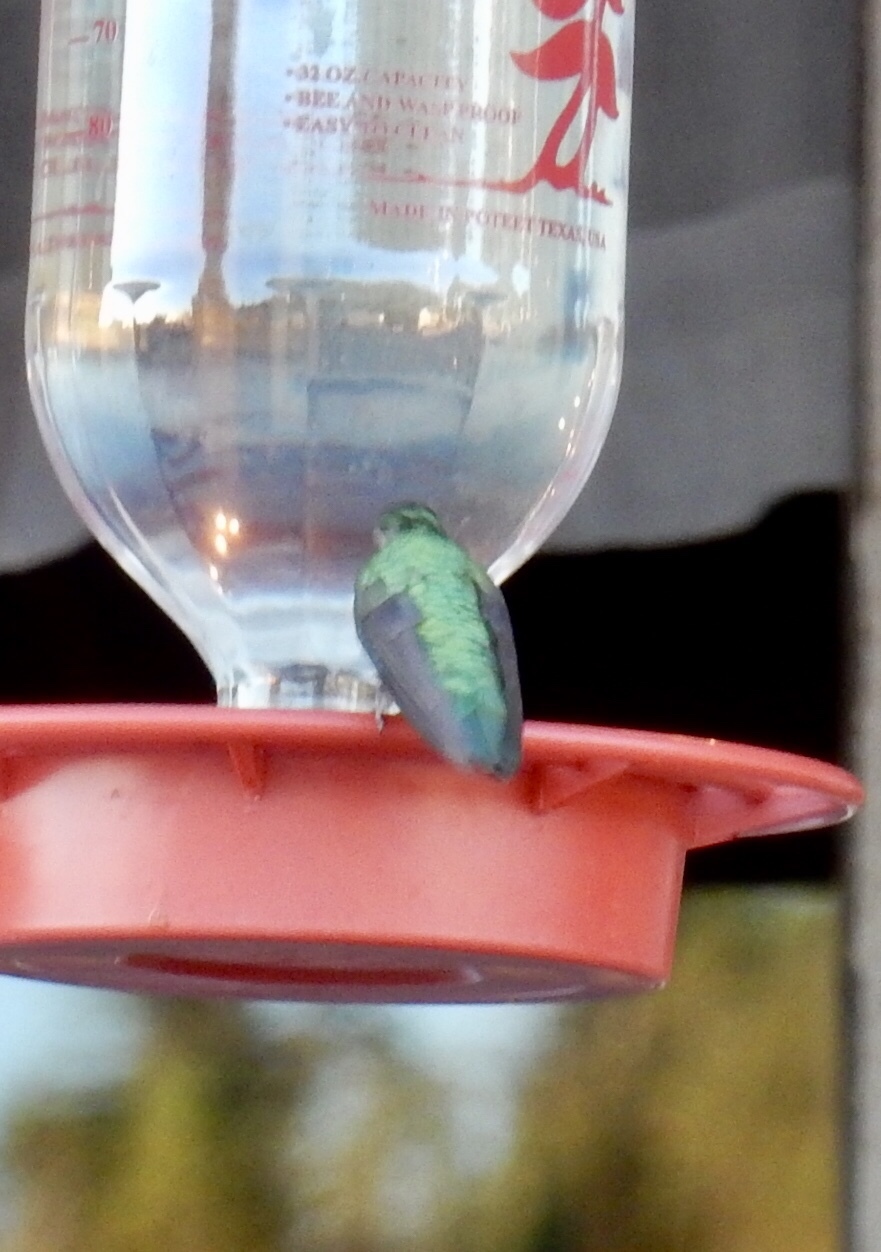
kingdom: Animalia
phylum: Chordata
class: Aves
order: Apodiformes
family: Trochilidae
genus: Selasphorus
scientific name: Selasphorus platycercus
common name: Broad-tailed hummingbird
